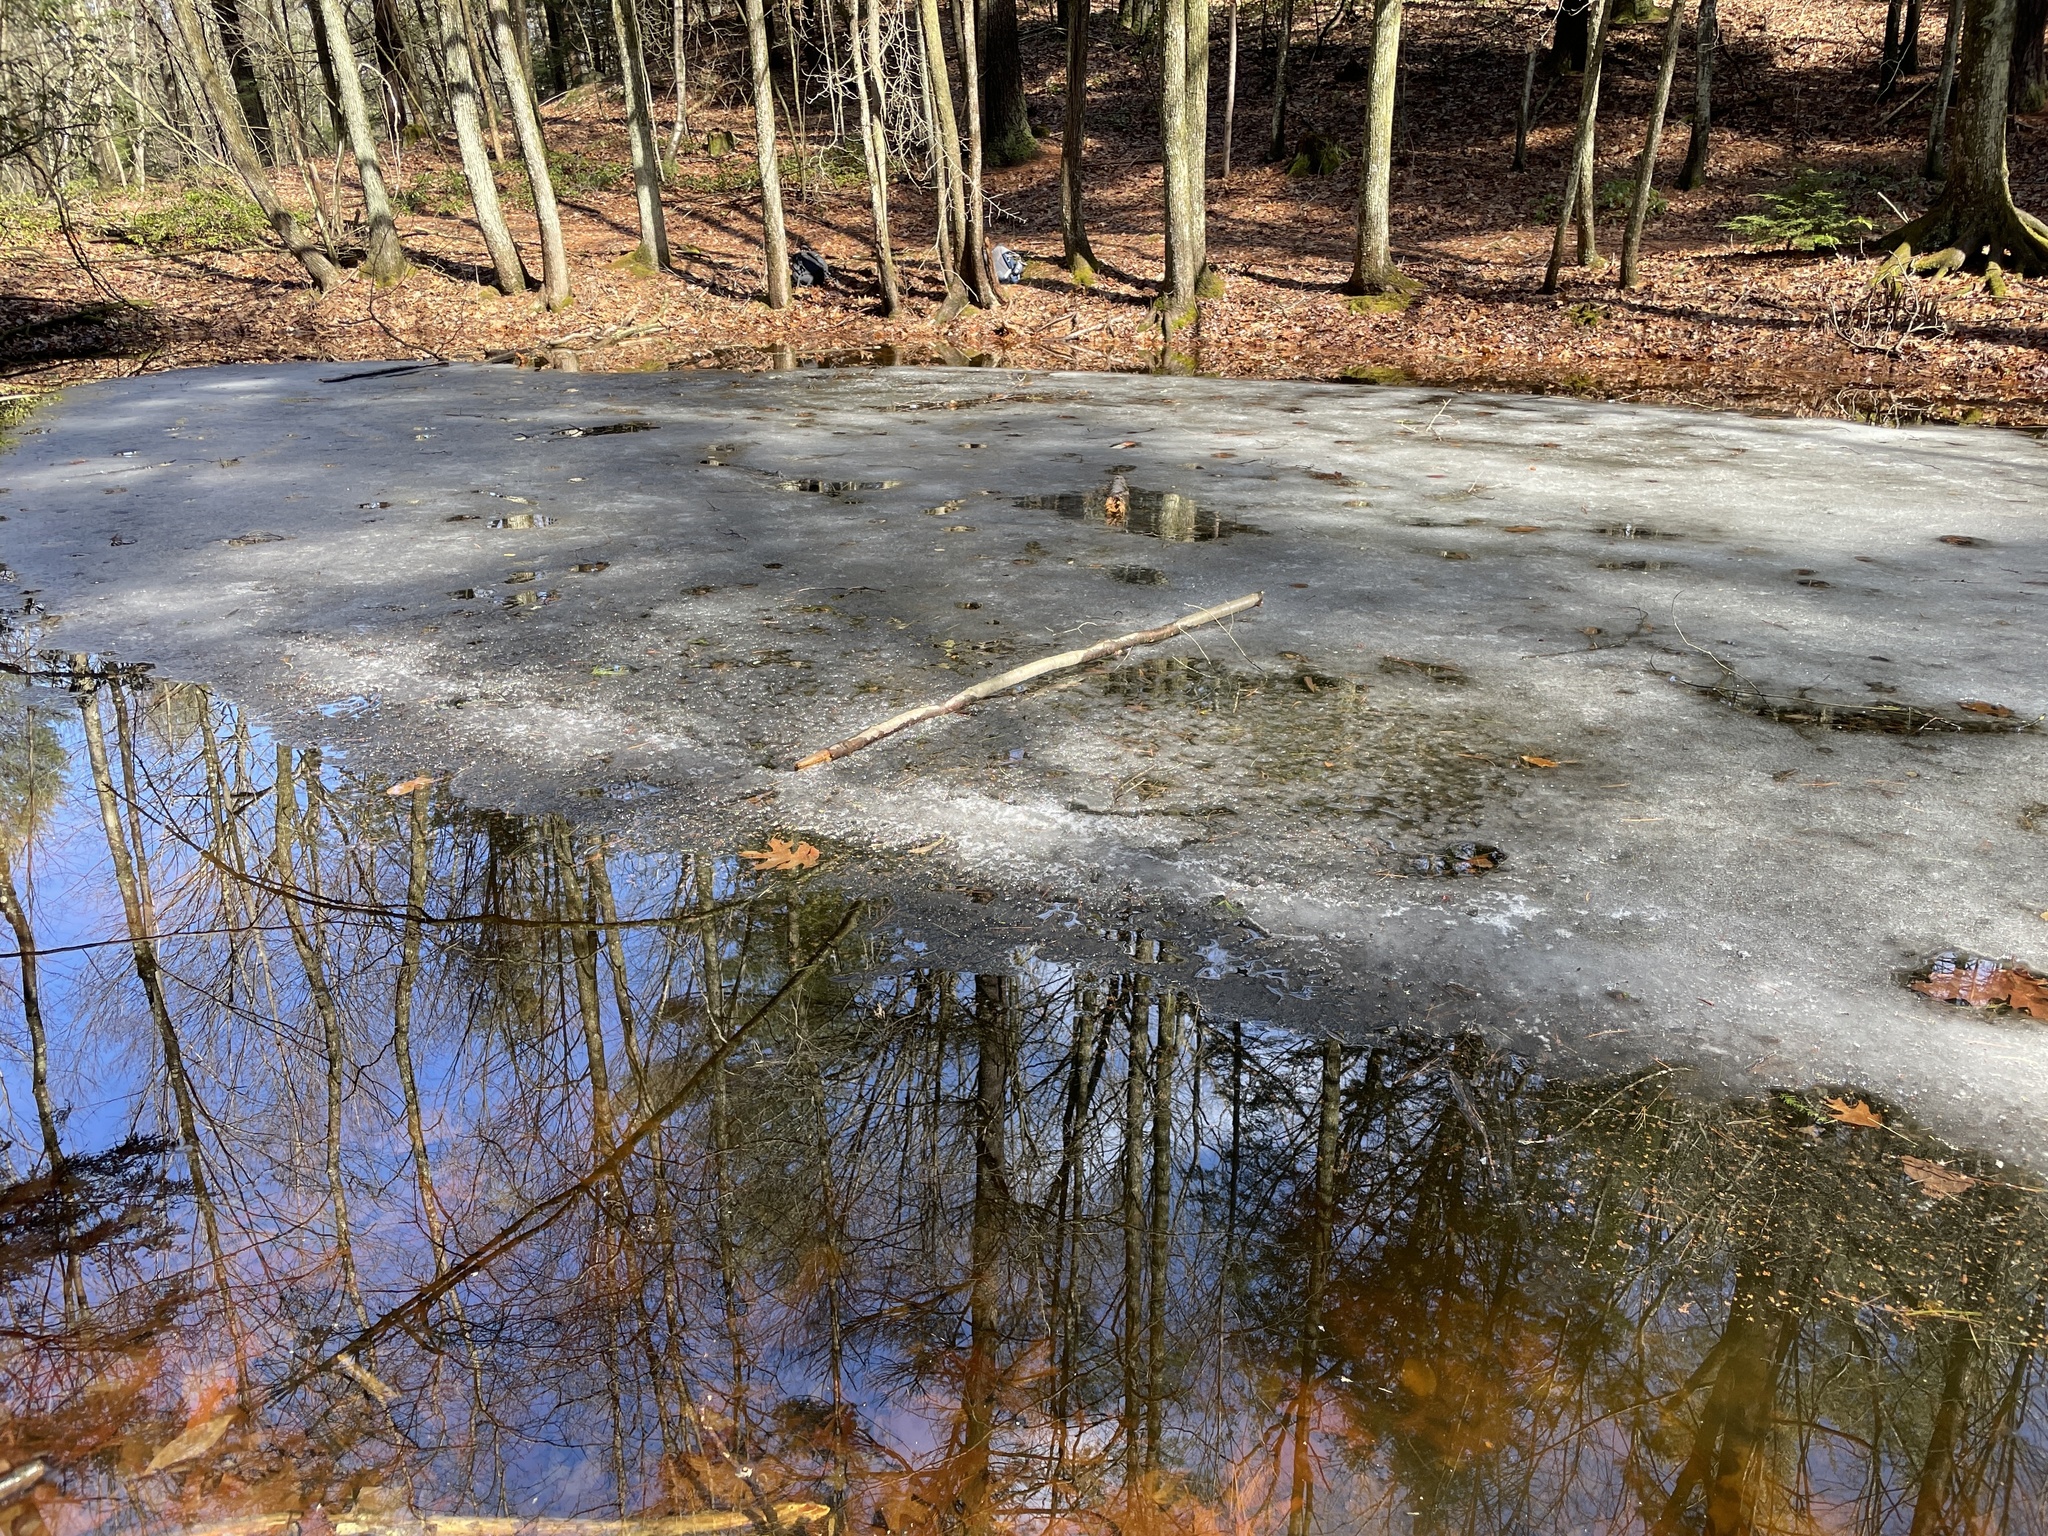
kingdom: Animalia
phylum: Chordata
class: Amphibia
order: Caudata
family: Ambystomatidae
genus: Ambystoma
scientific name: Ambystoma jeffersonianum
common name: Jefferson salamander
